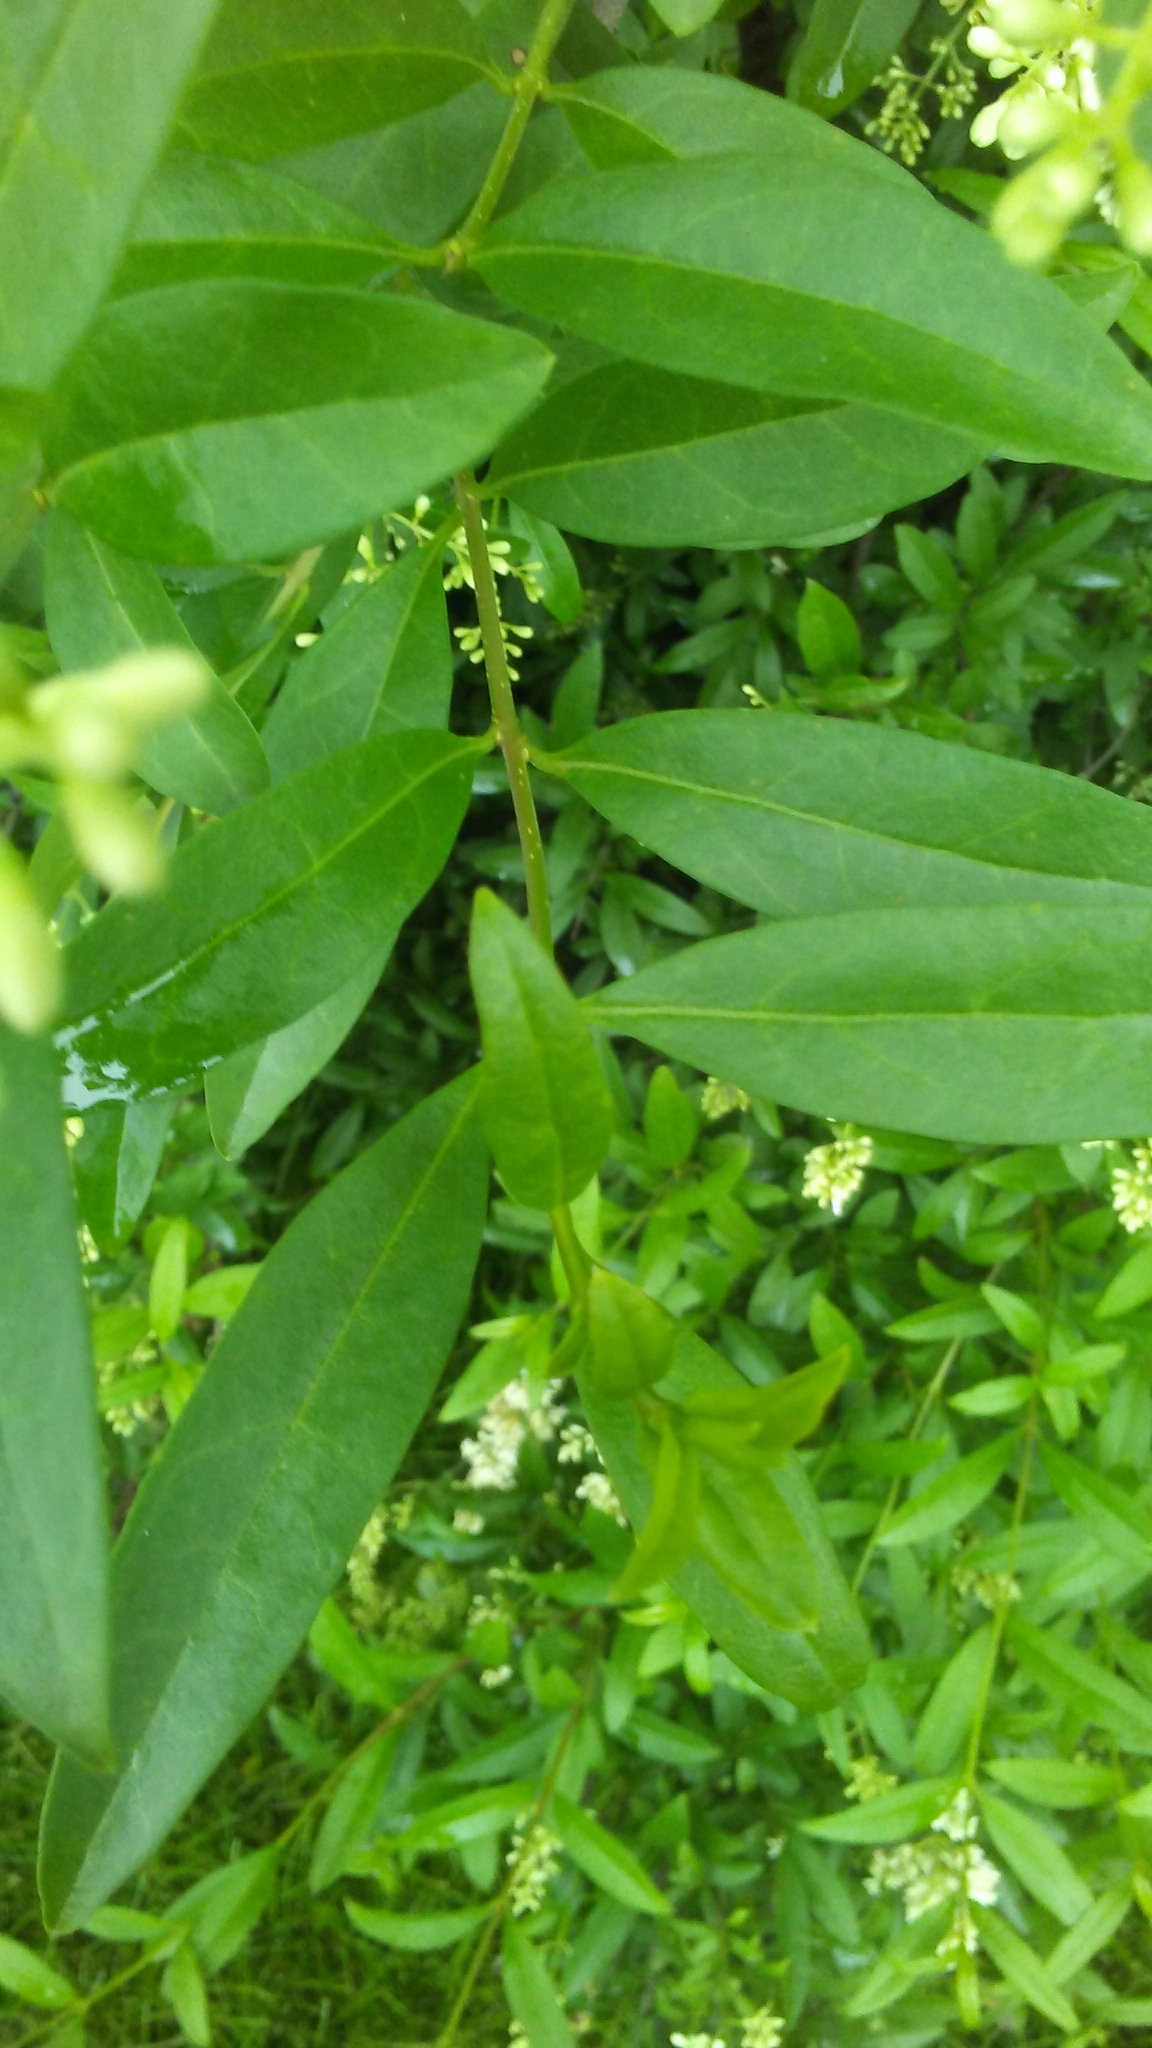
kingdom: Plantae
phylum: Tracheophyta
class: Magnoliopsida
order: Lamiales
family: Oleaceae
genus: Ligustrum
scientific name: Ligustrum vulgare
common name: Wild privet
